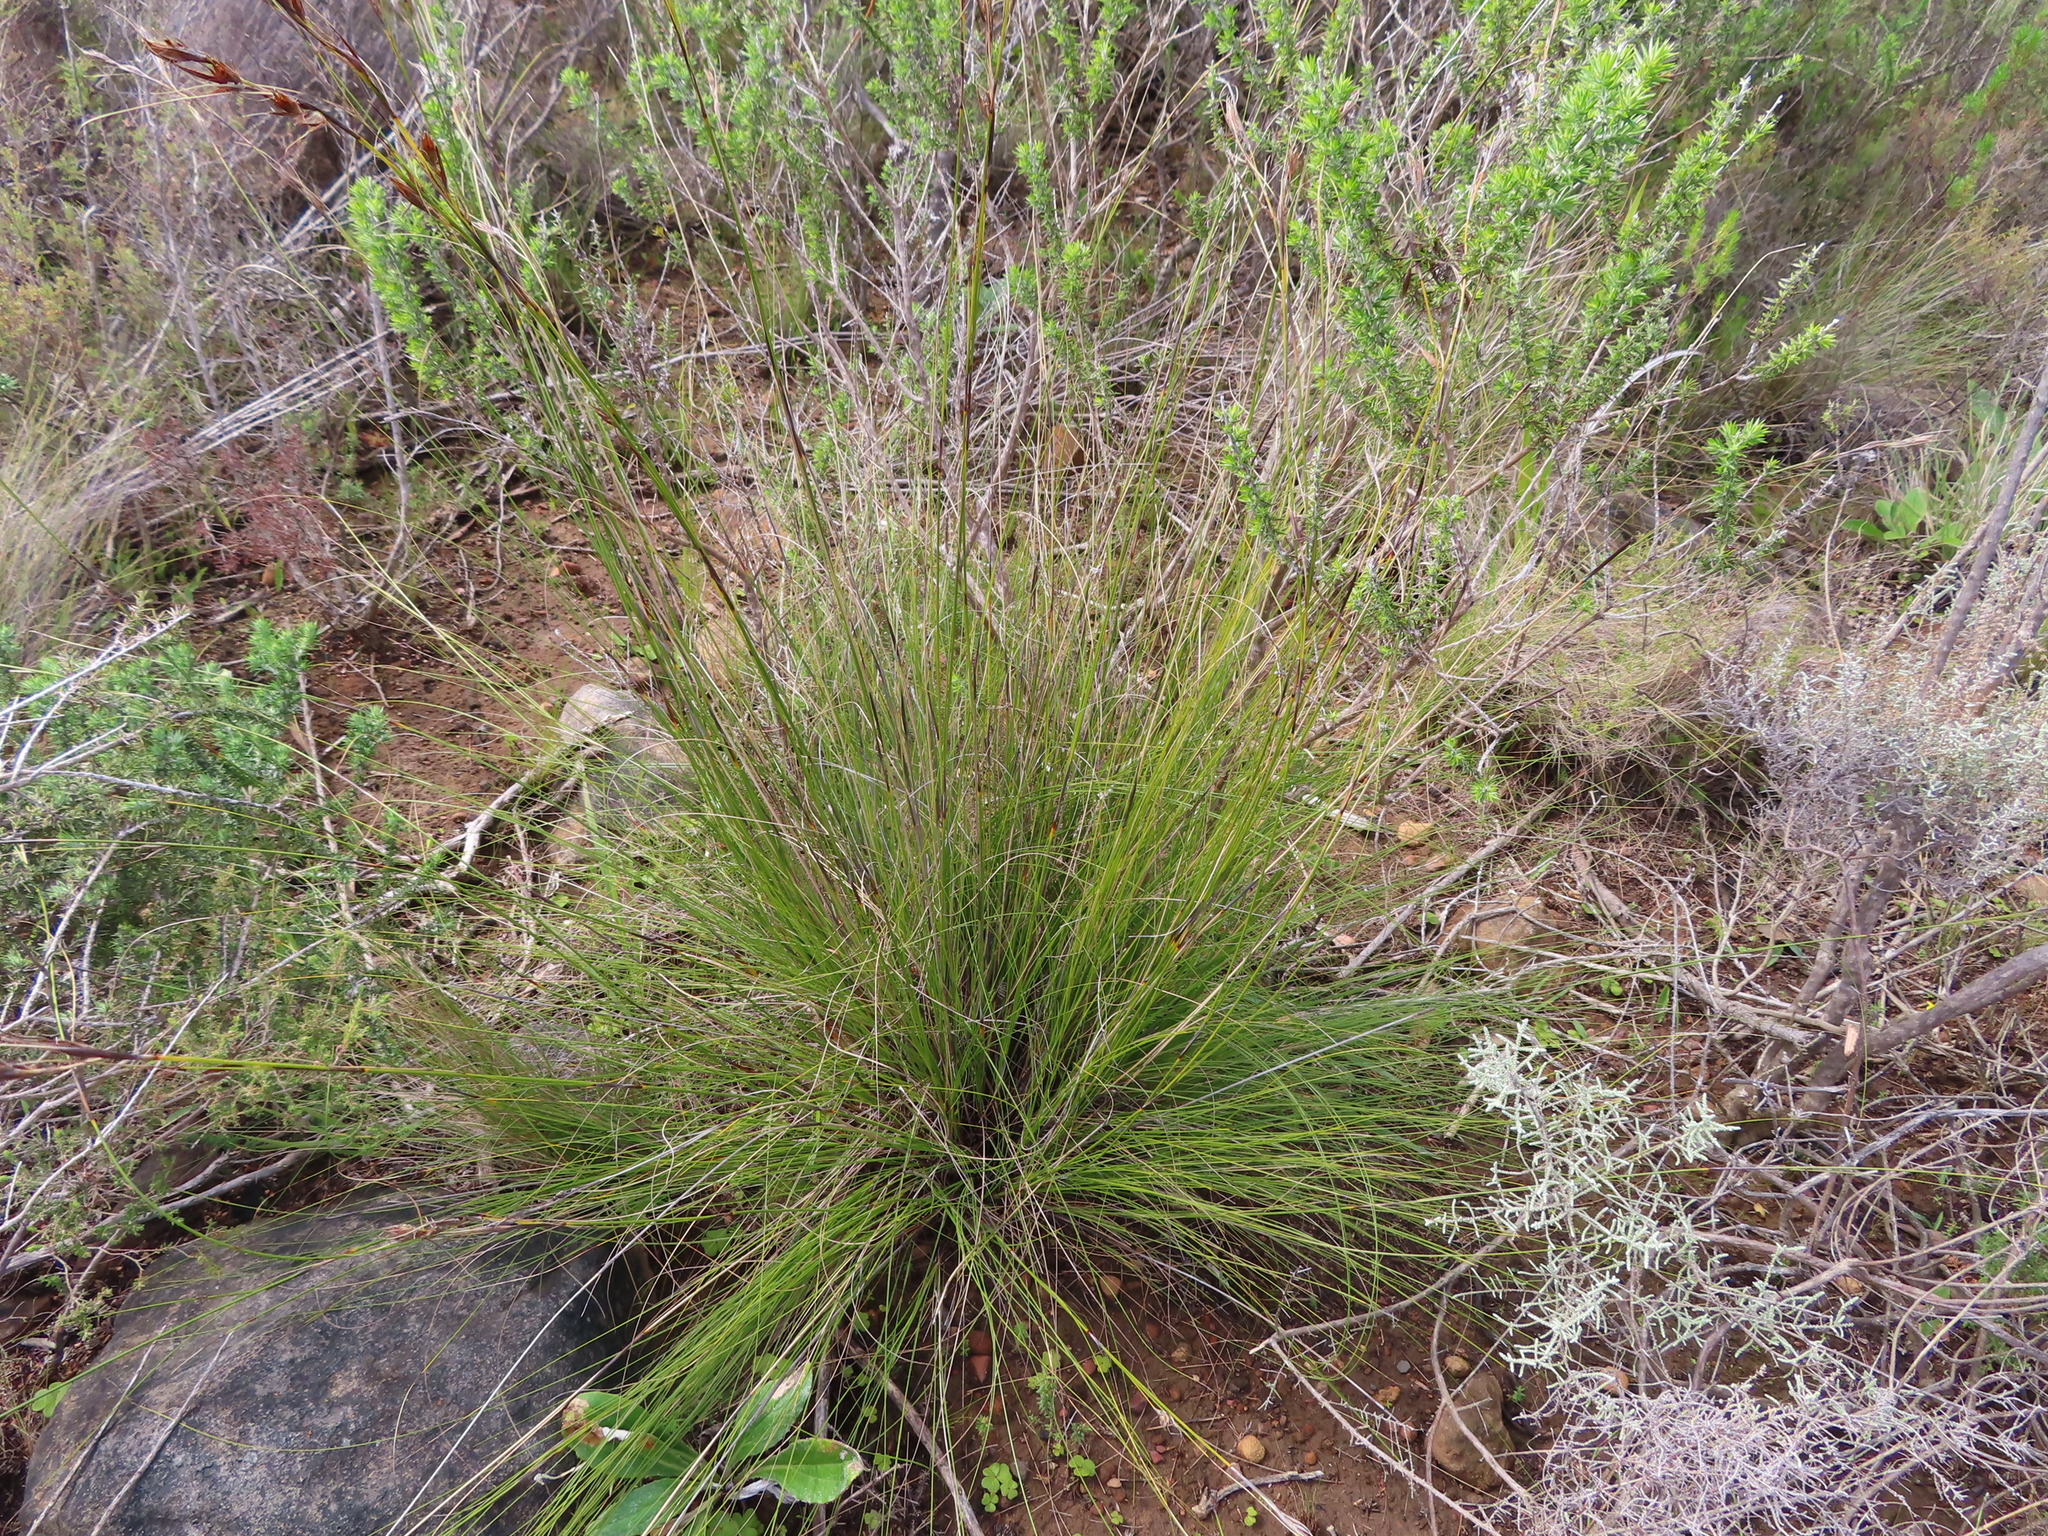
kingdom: Plantae
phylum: Tracheophyta
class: Liliopsida
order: Poales
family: Cyperaceae
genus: Tetraria
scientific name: Tetraria bromoides
